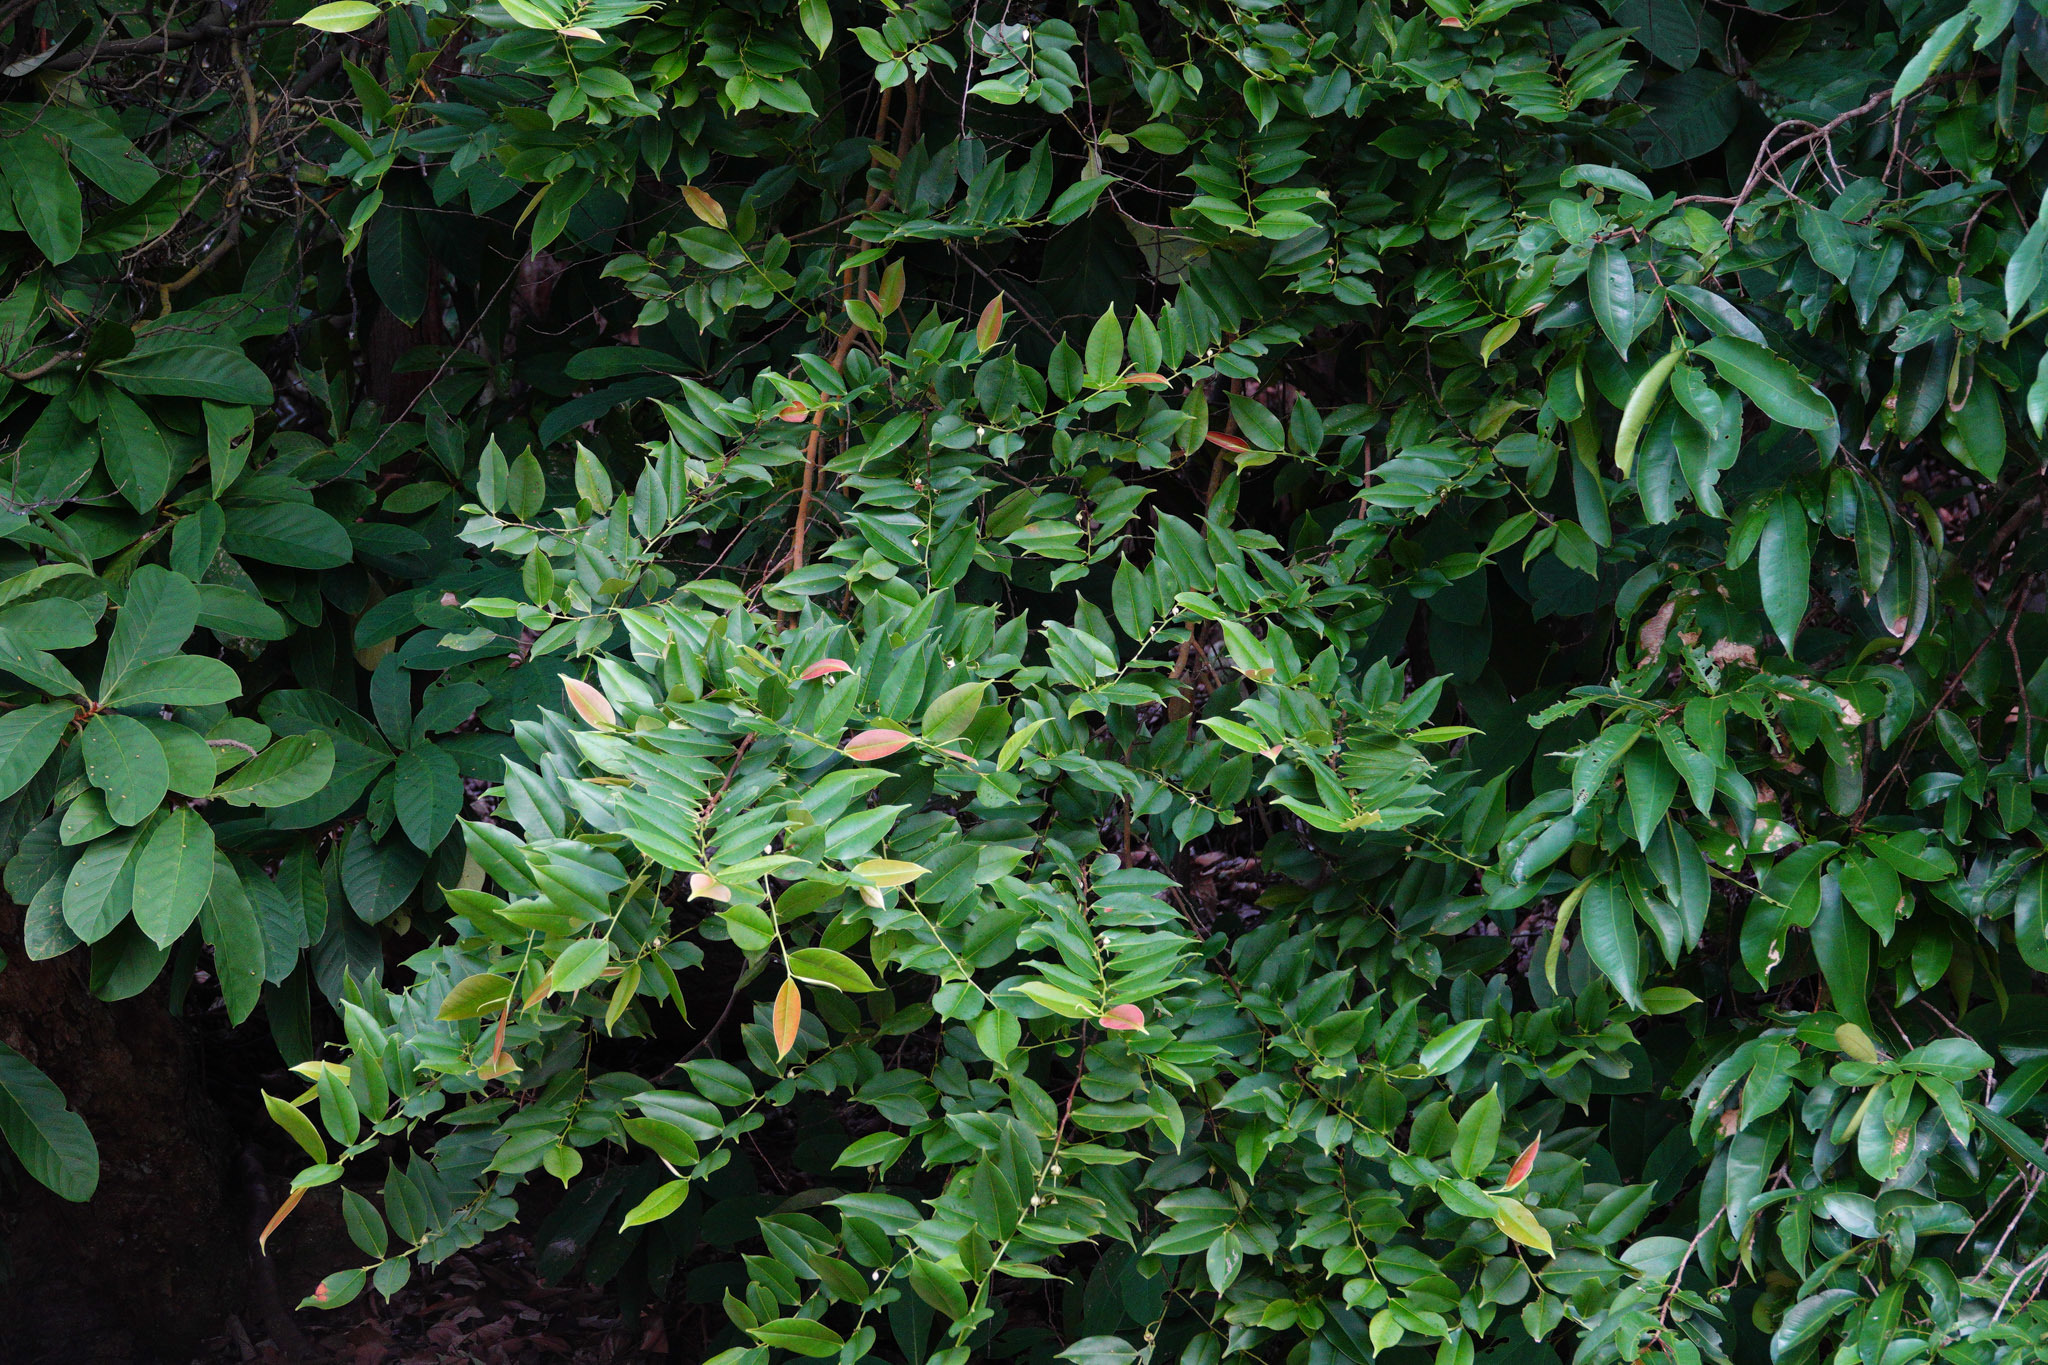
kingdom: Plantae
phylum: Tracheophyta
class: Magnoliopsida
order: Ericales
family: Pentaphylacaceae
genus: Adinandra
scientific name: Adinandra dumosa
